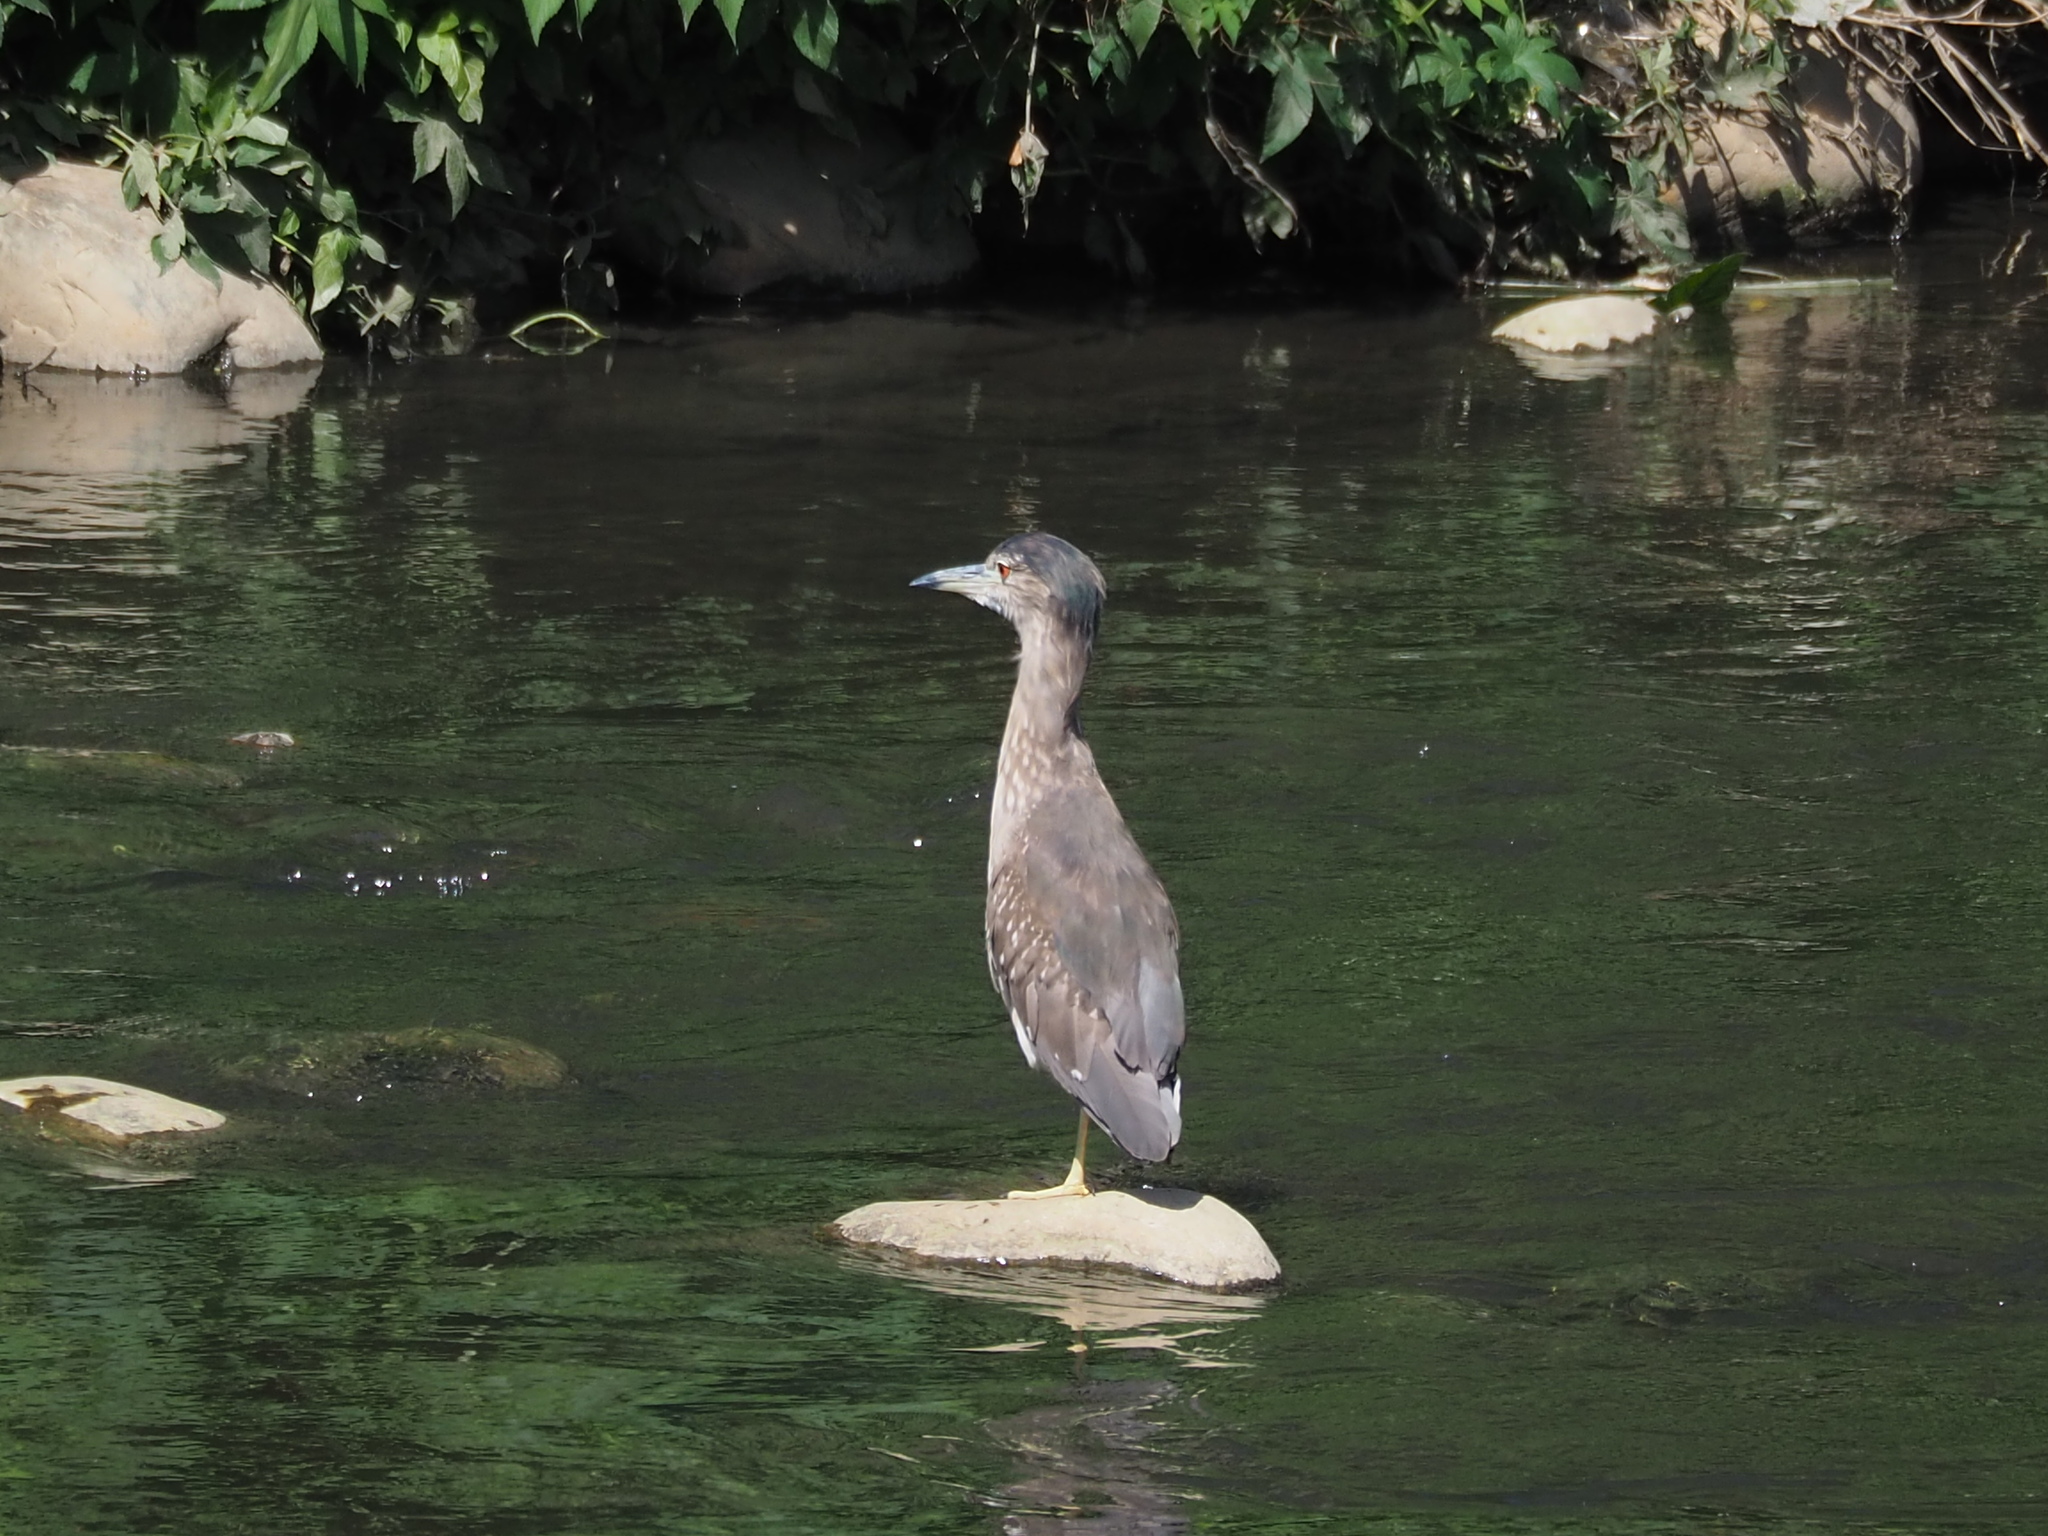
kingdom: Animalia
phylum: Chordata
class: Aves
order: Pelecaniformes
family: Ardeidae
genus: Nycticorax
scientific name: Nycticorax nycticorax
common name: Black-crowned night heron
